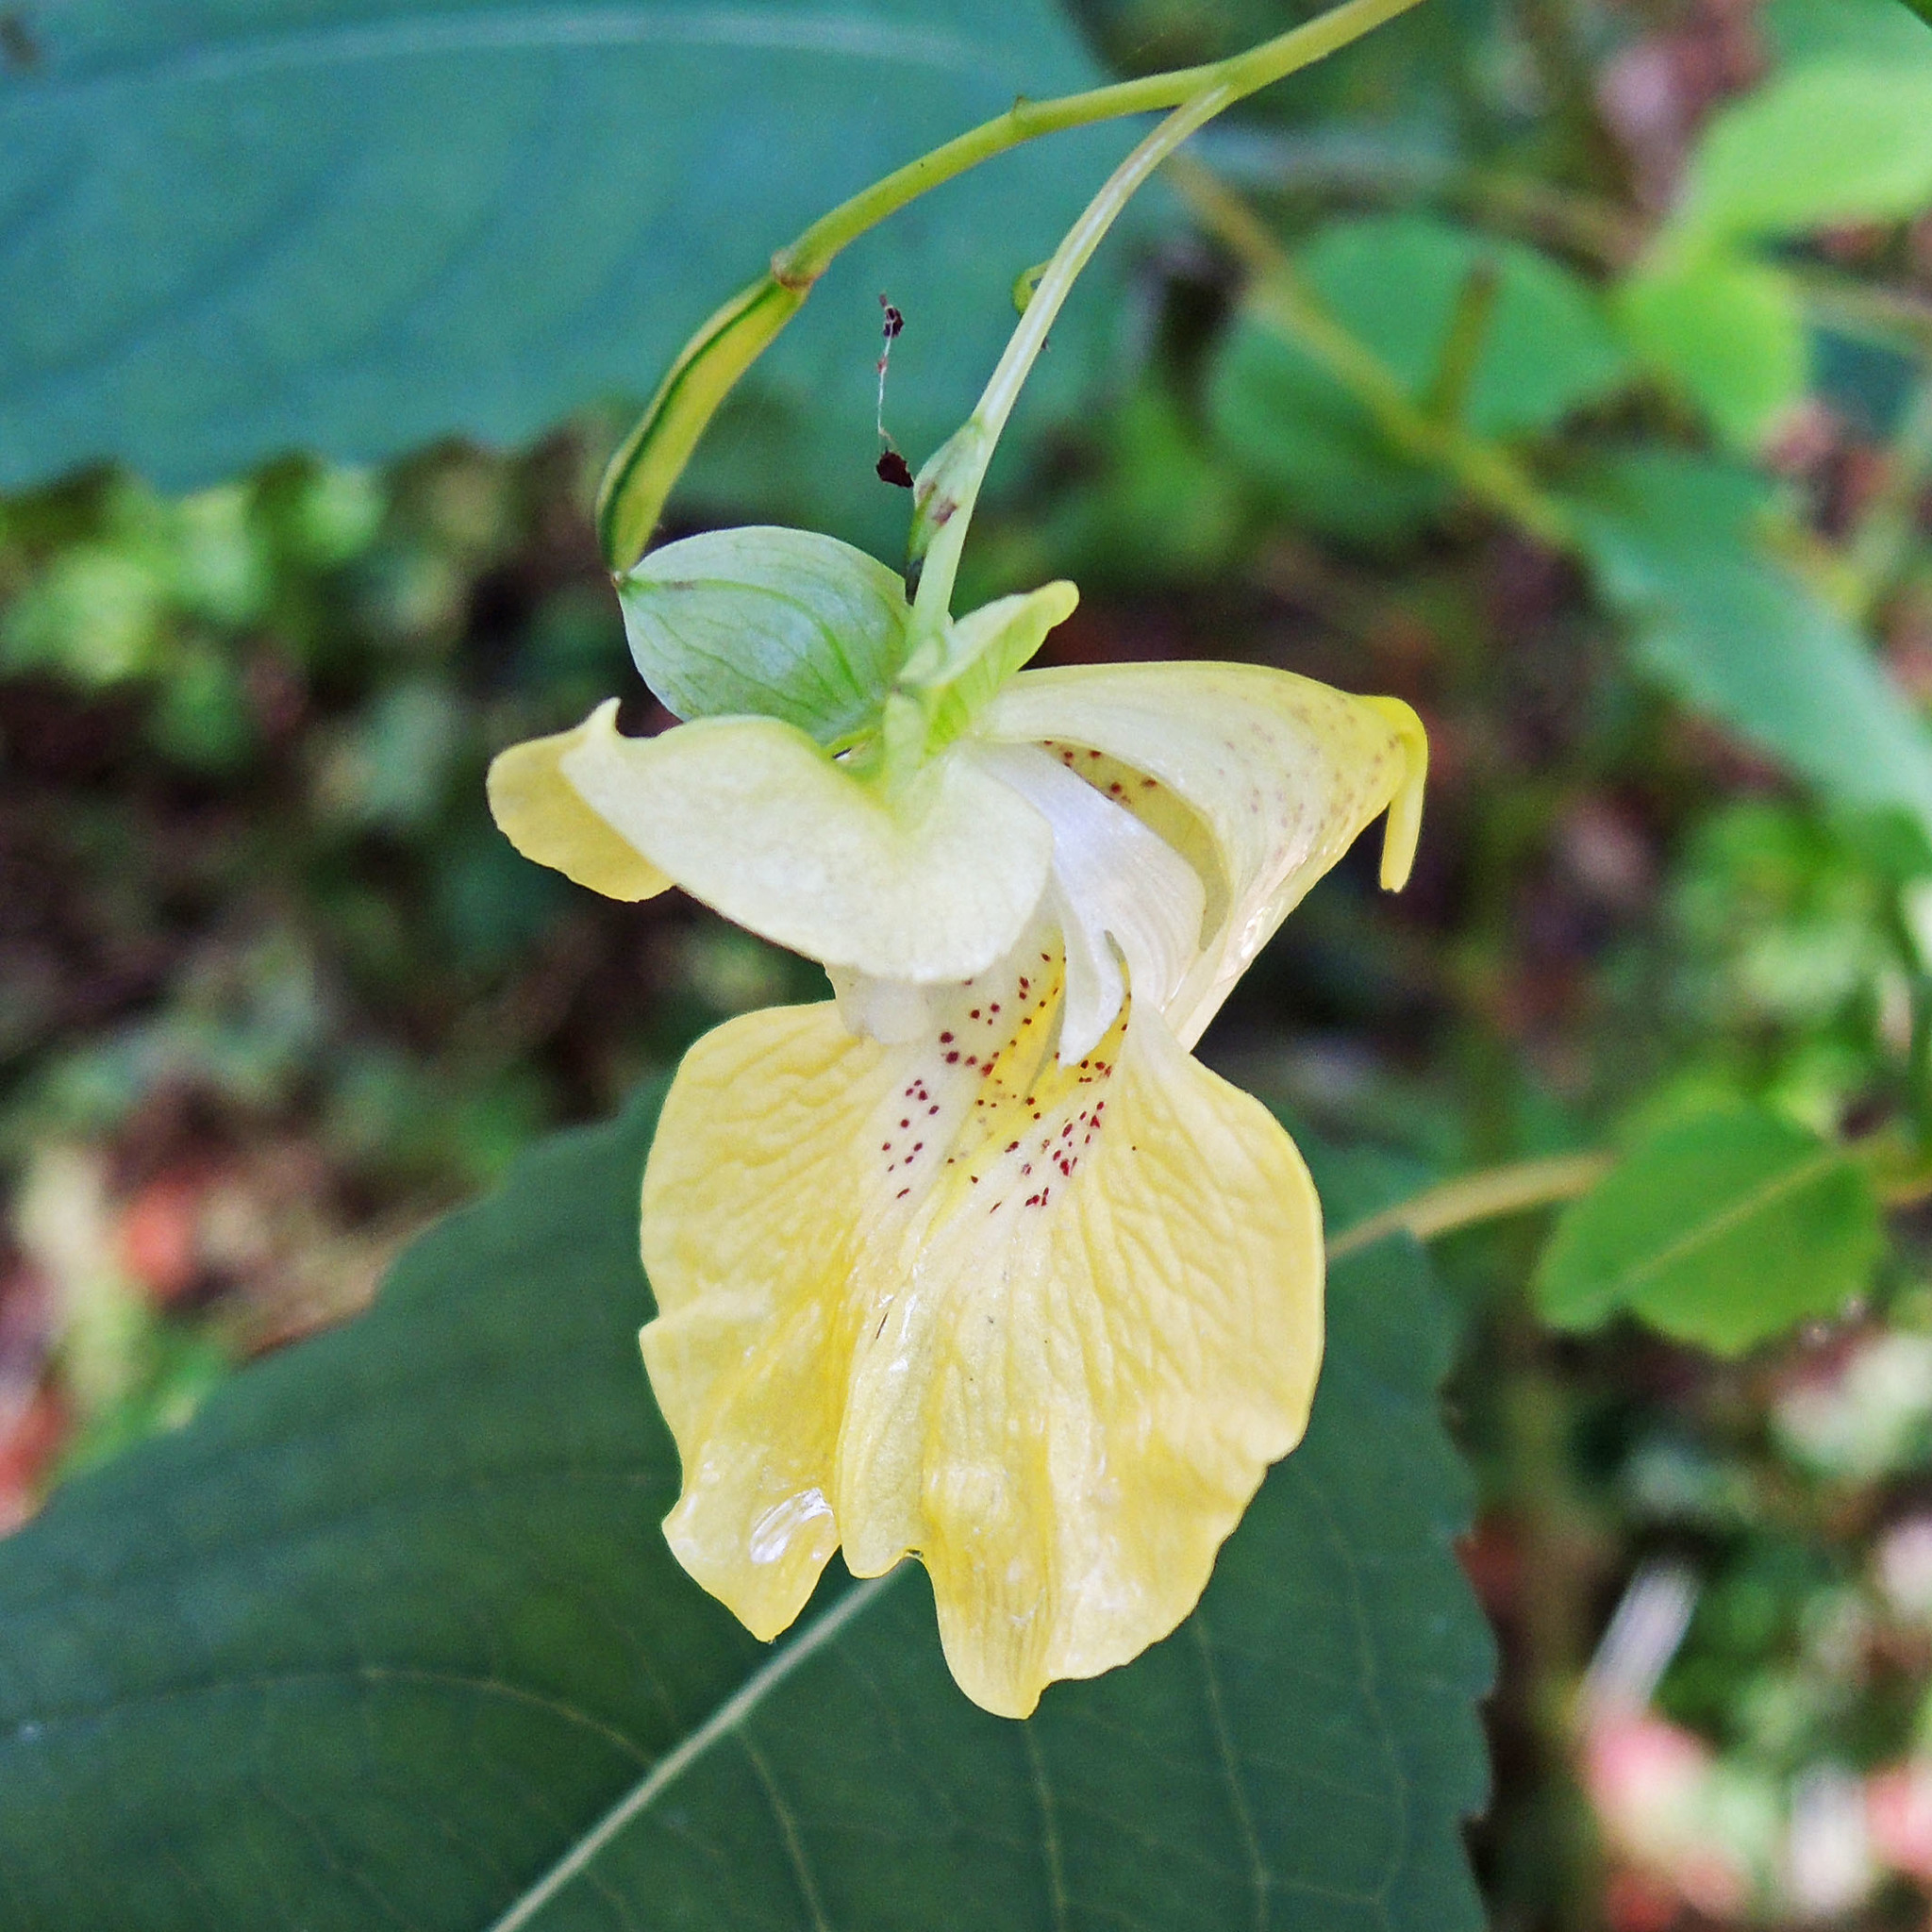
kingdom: Plantae
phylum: Tracheophyta
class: Magnoliopsida
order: Ericales
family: Balsaminaceae
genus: Impatiens
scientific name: Impatiens pallida
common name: Pale snapweed
